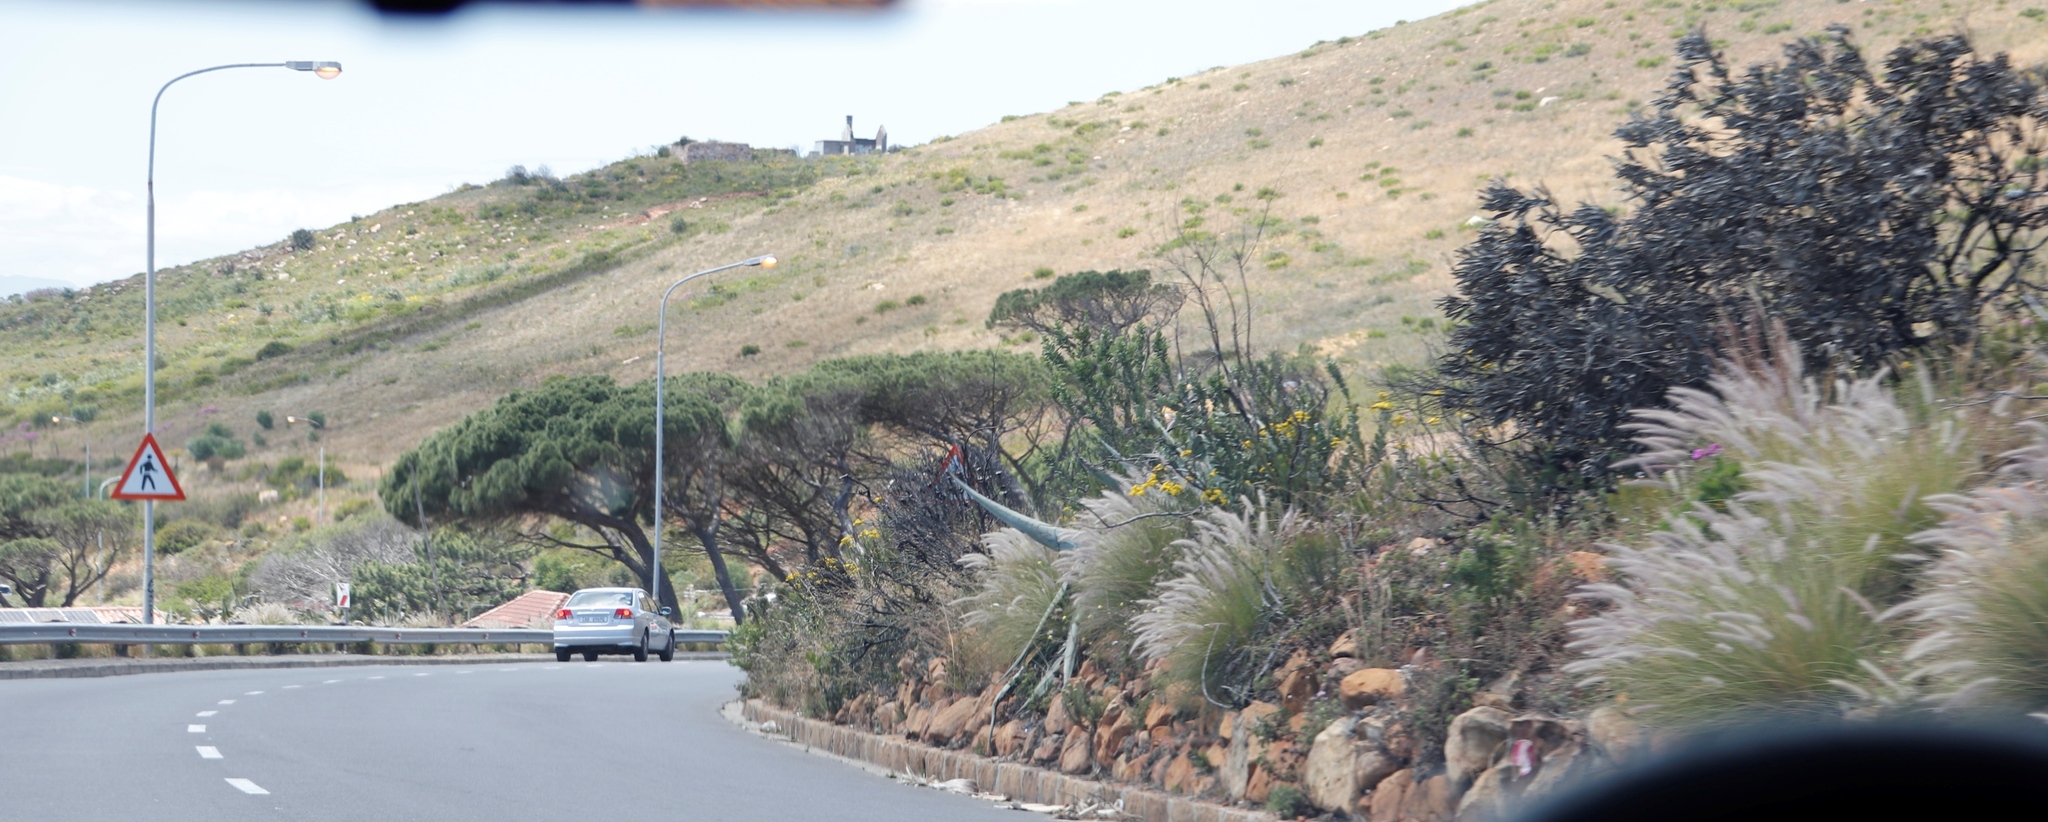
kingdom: Plantae
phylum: Tracheophyta
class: Liliopsida
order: Poales
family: Poaceae
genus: Cenchrus
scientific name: Cenchrus setaceus
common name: Crimson fountaingrass
